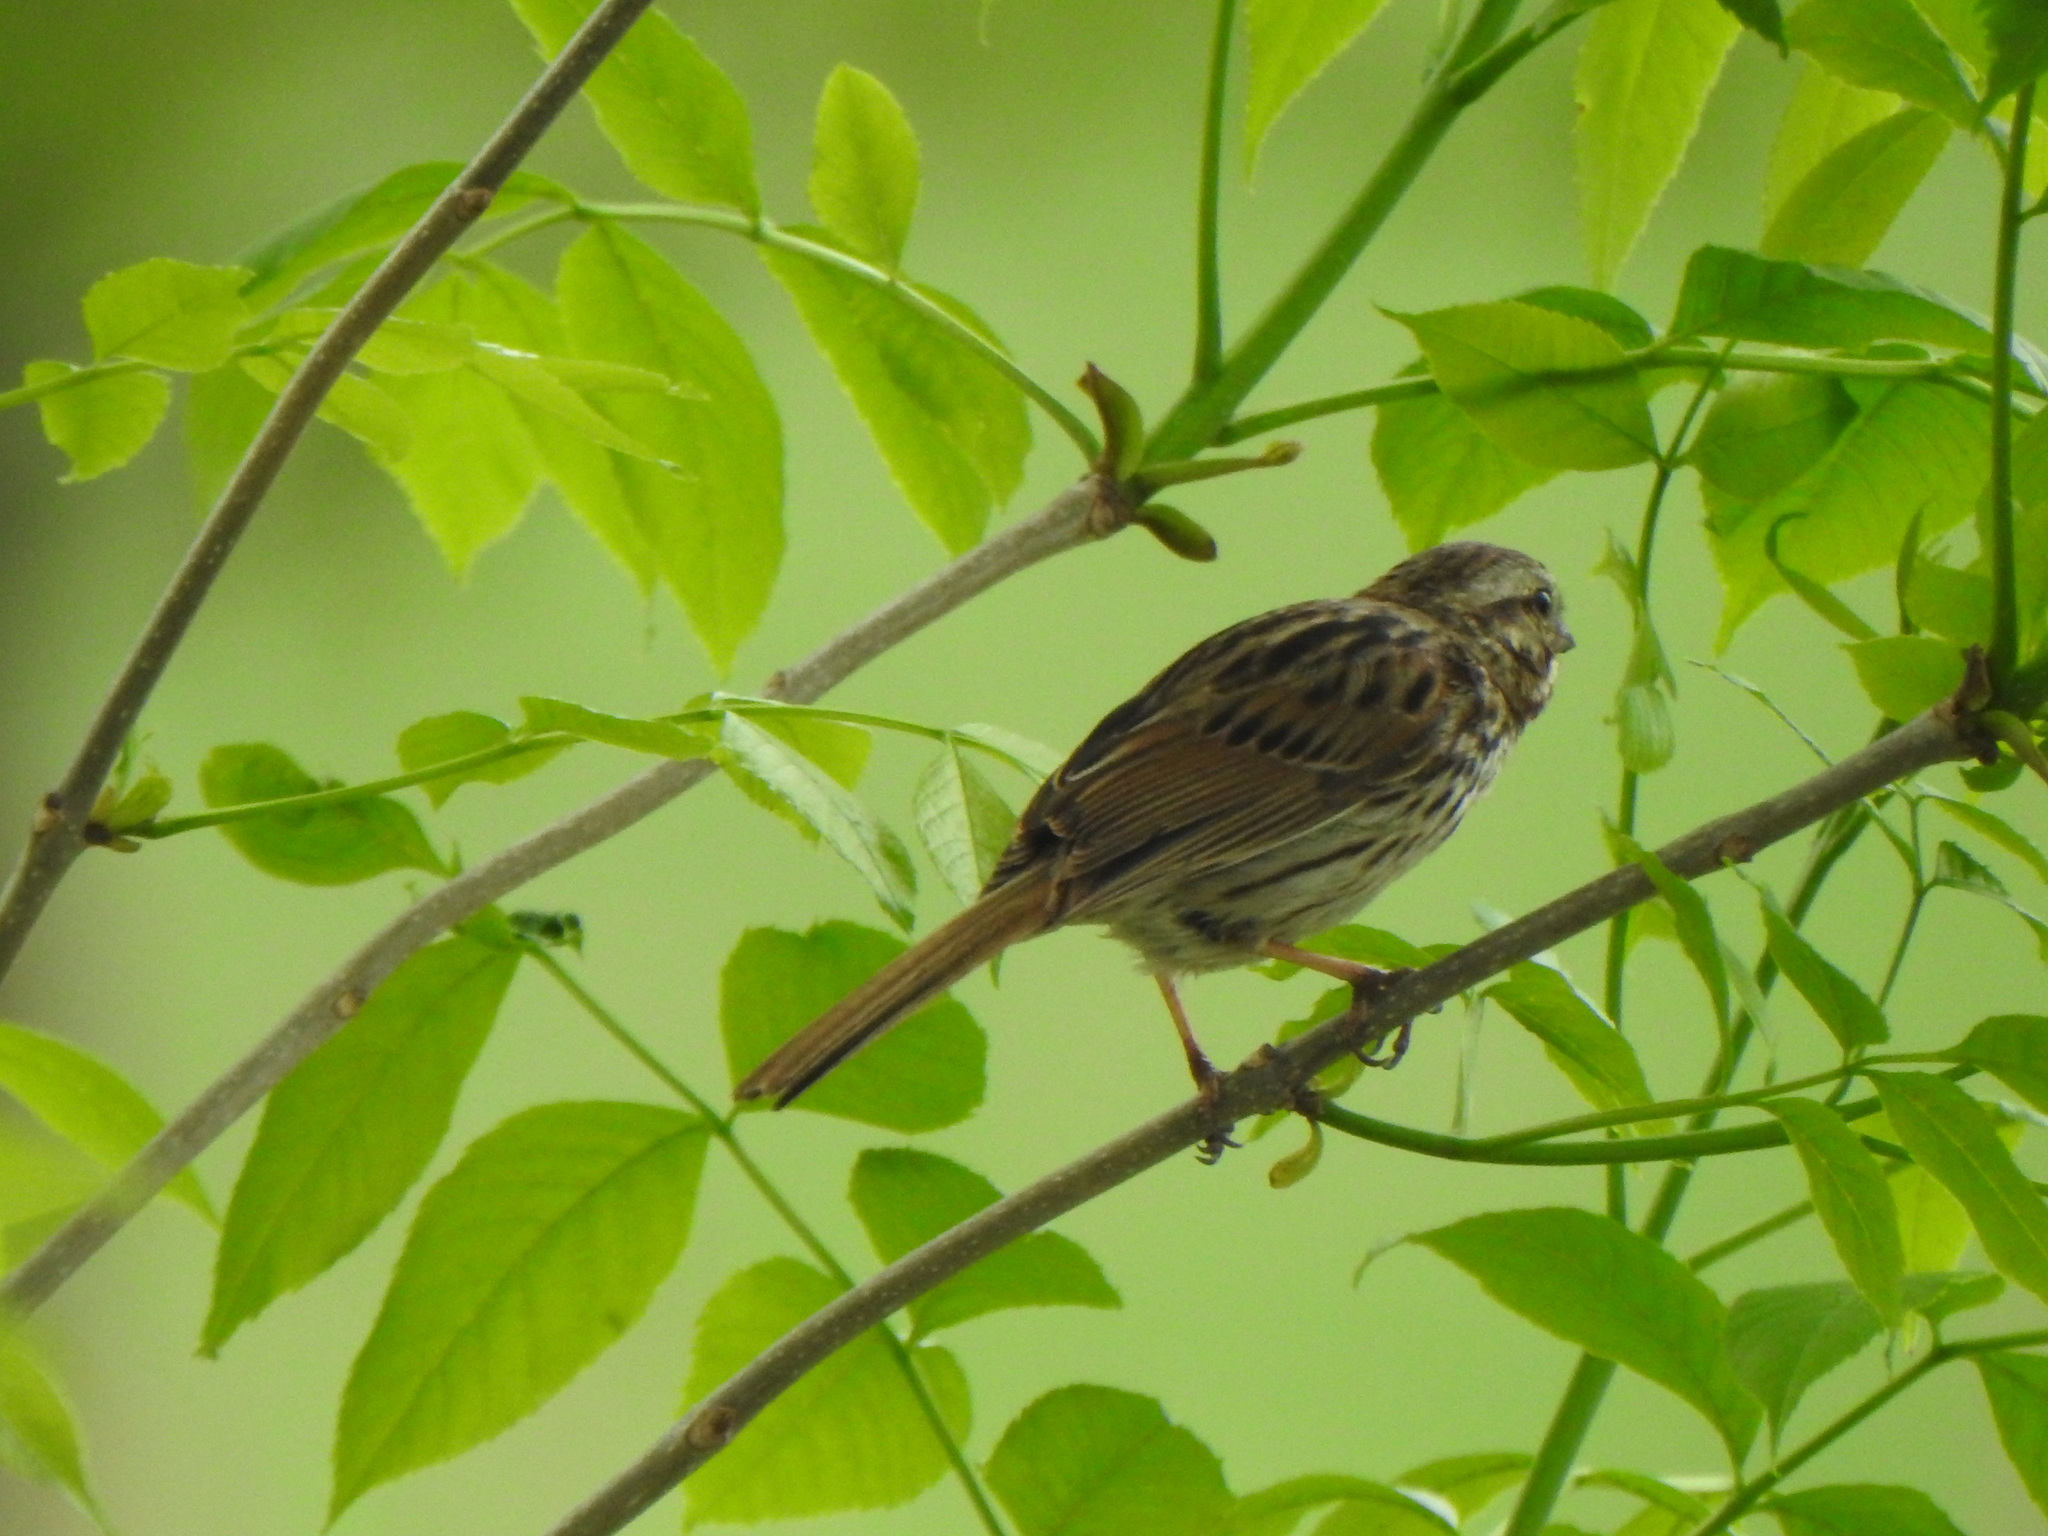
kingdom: Animalia
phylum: Chordata
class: Aves
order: Passeriformes
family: Passerellidae
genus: Melospiza
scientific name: Melospiza melodia
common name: Song sparrow
